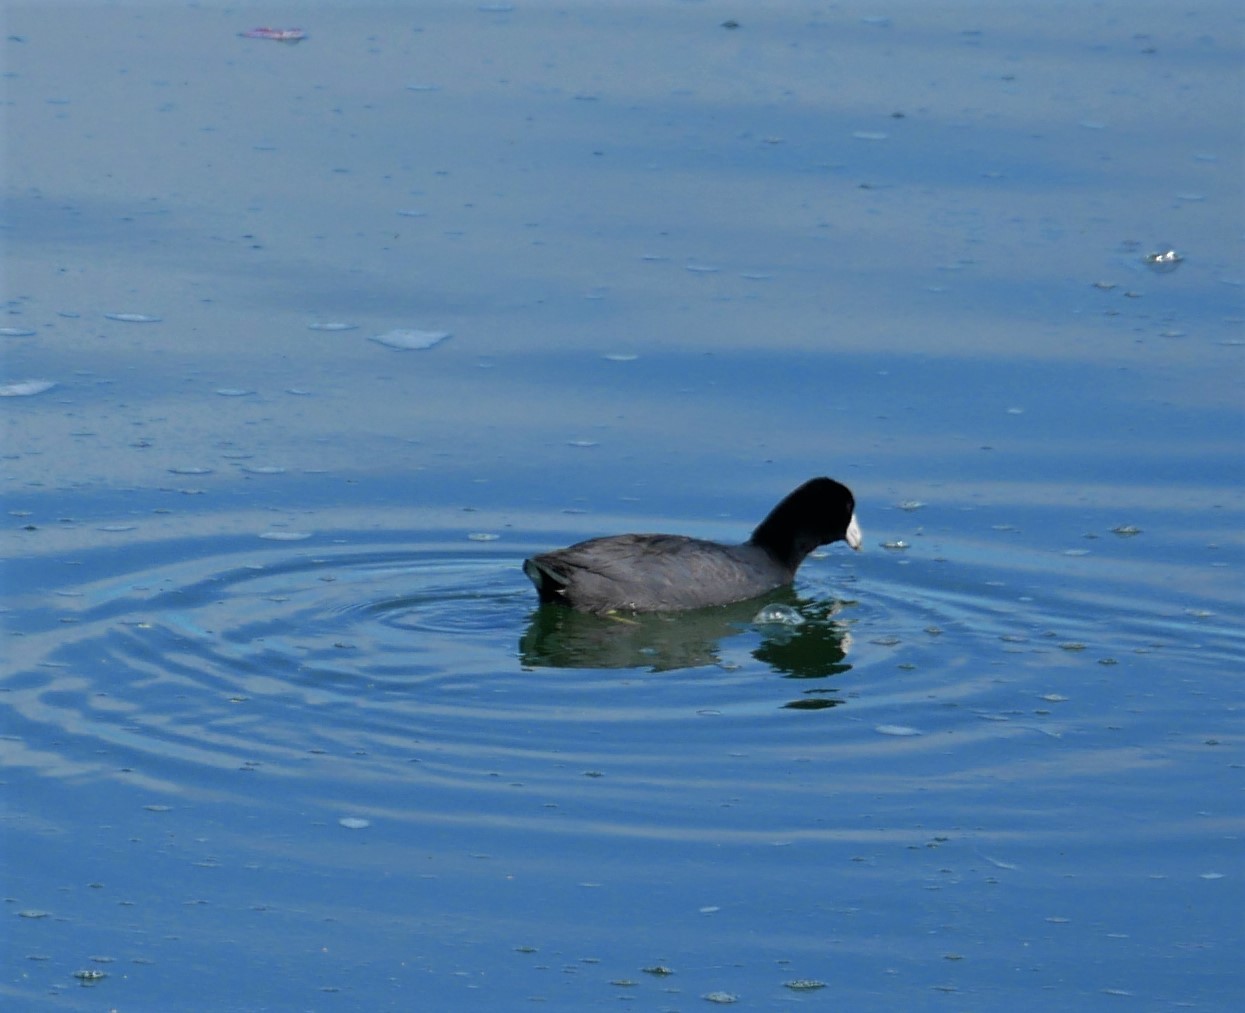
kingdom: Animalia
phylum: Chordata
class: Aves
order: Gruiformes
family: Rallidae
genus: Fulica
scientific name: Fulica americana
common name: American coot
